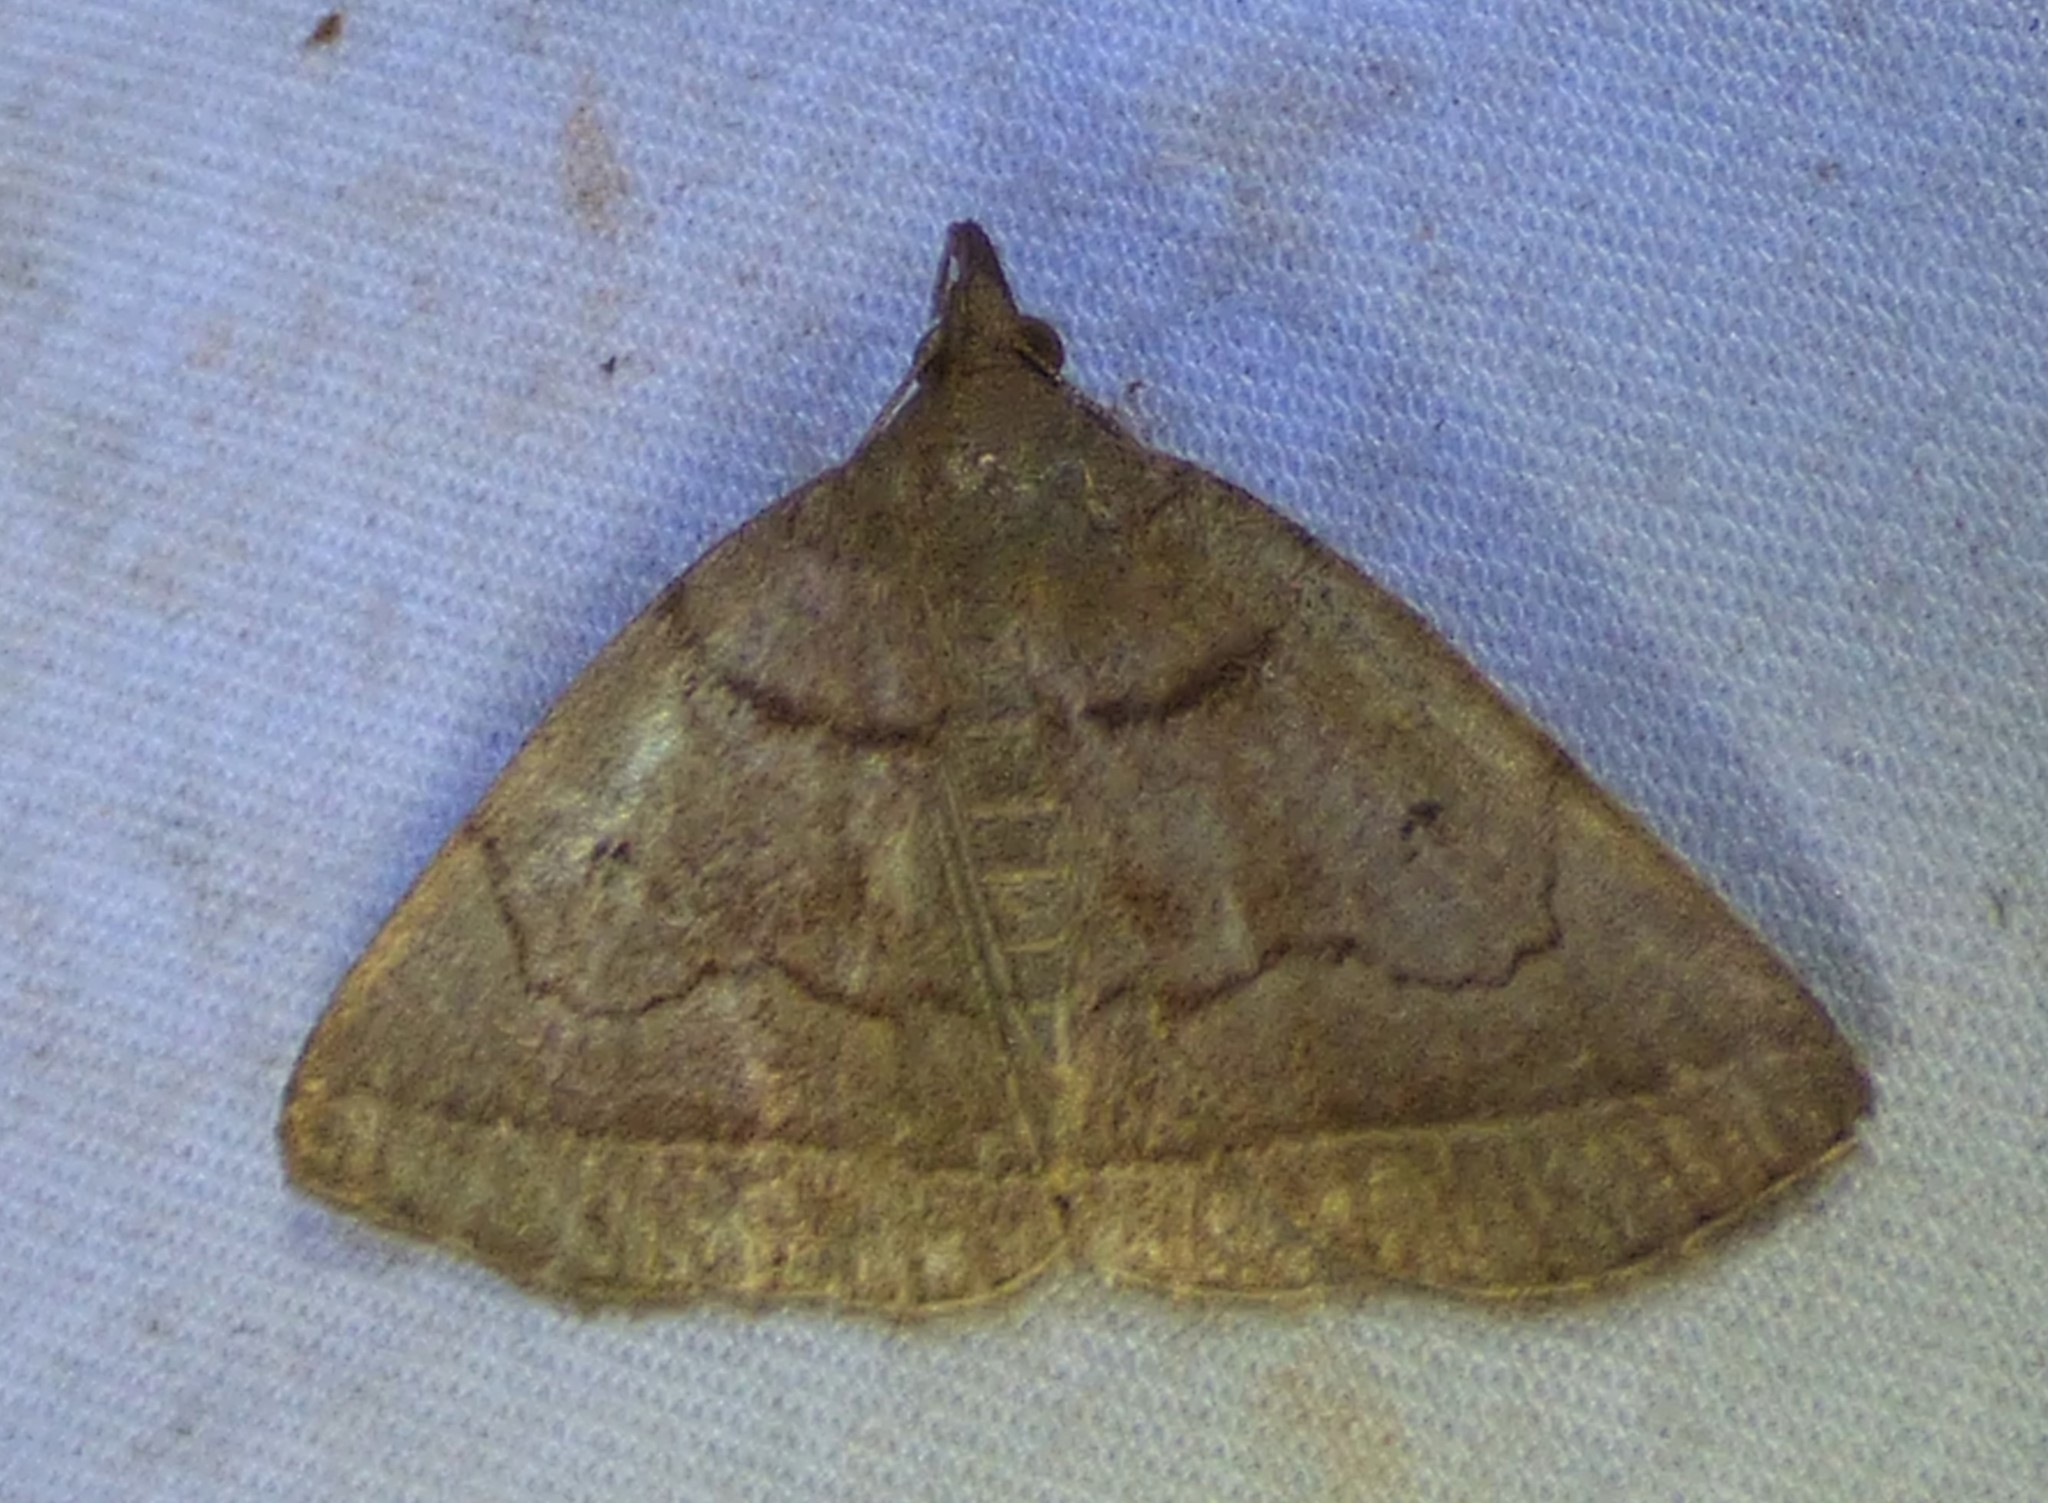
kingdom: Animalia
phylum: Arthropoda
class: Insecta
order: Lepidoptera
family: Erebidae
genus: Zanclognatha
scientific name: Zanclognatha cruralis
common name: Early fan-foot
